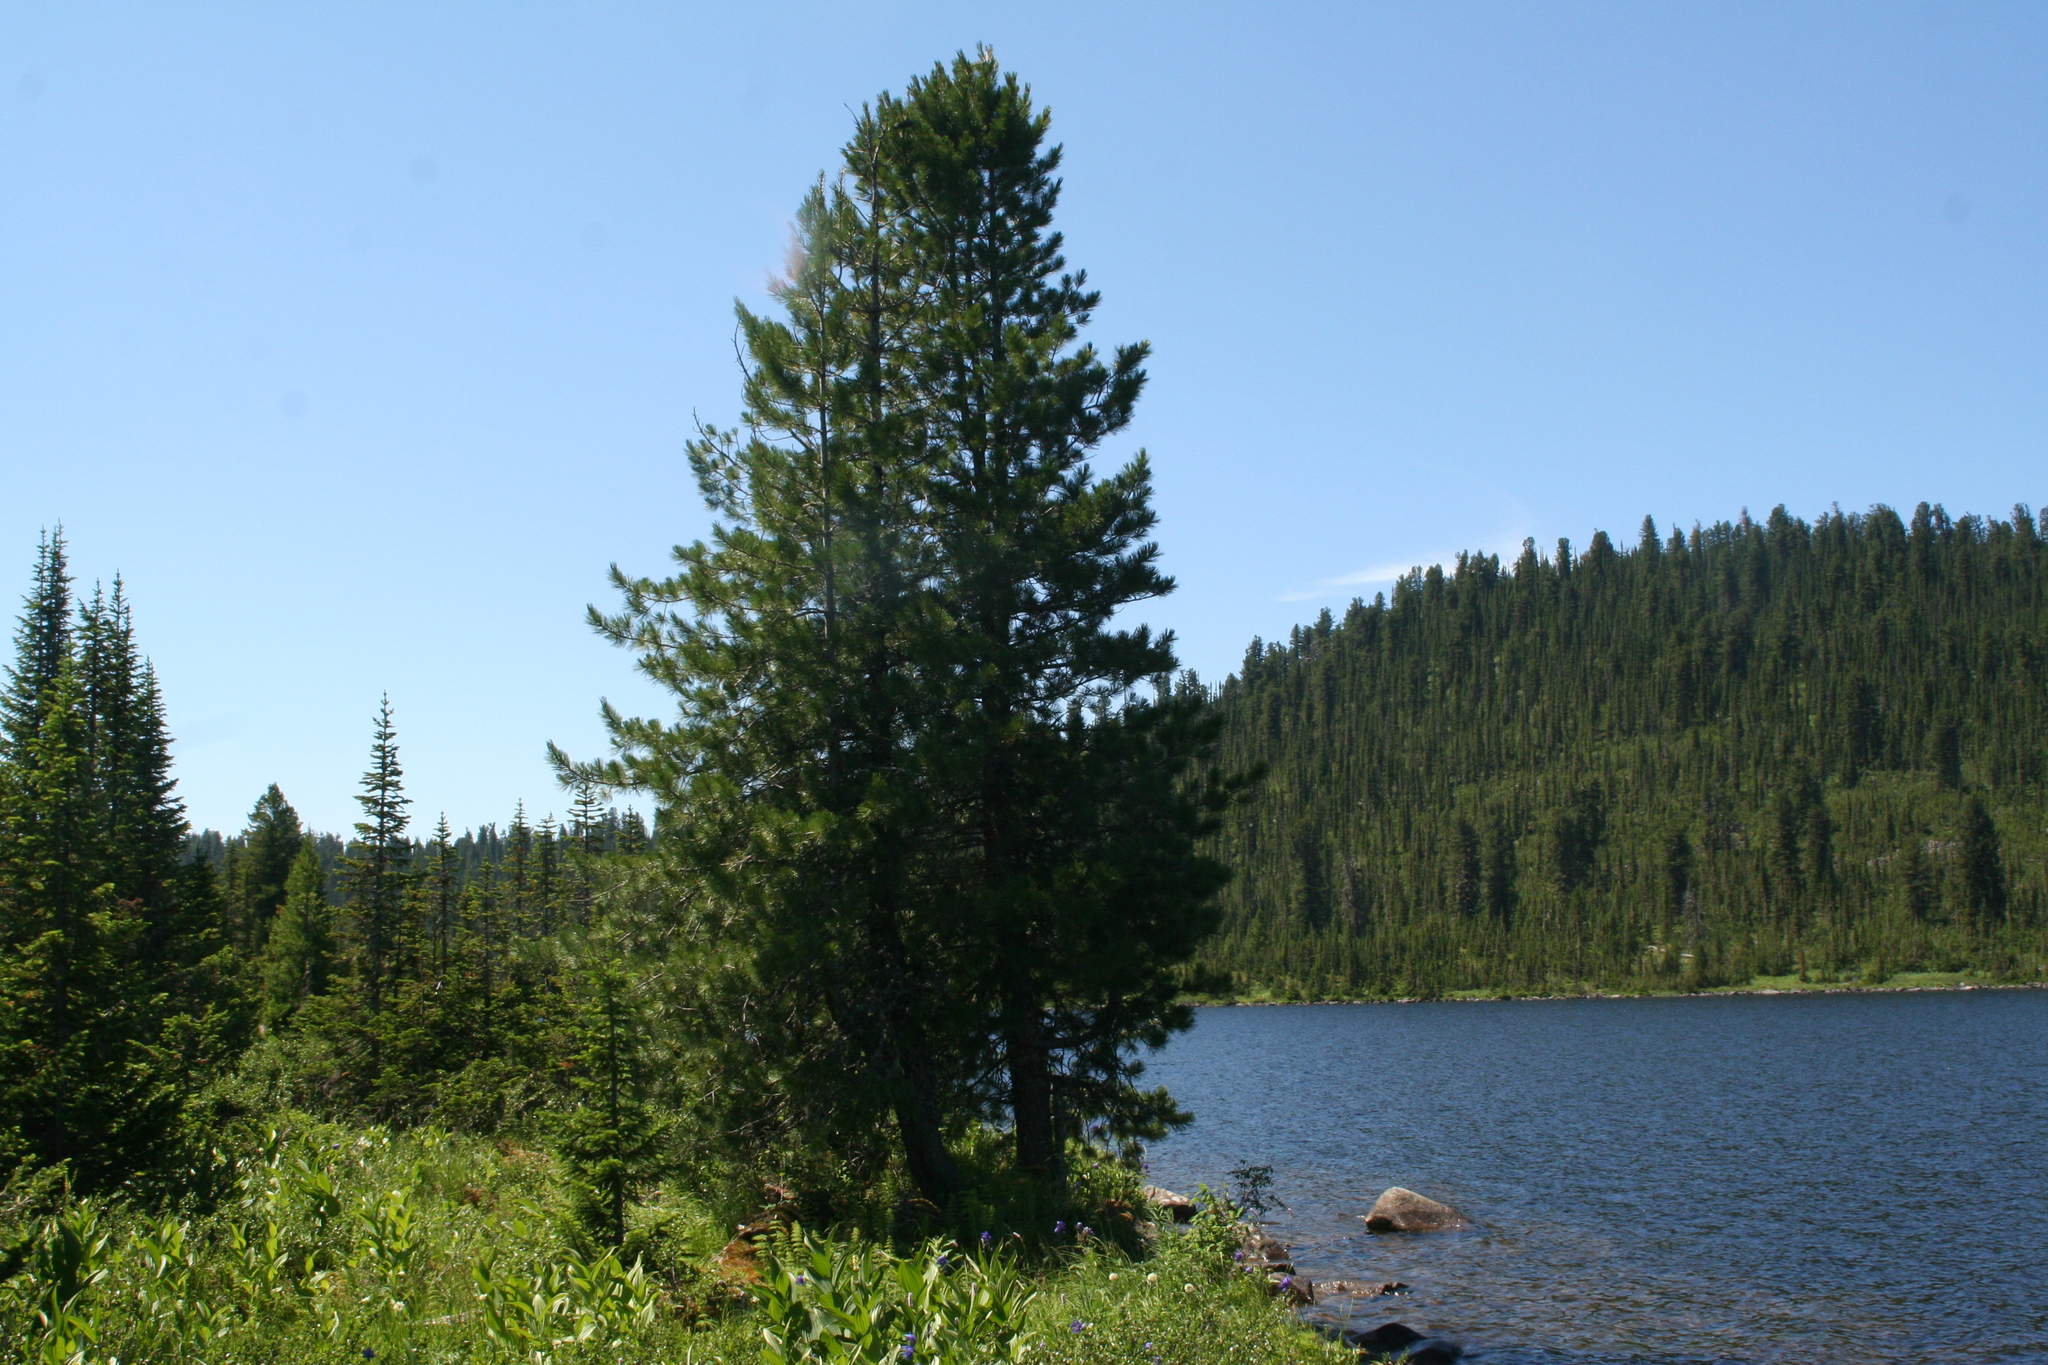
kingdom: Plantae
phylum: Tracheophyta
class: Pinopsida
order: Pinales
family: Pinaceae
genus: Pinus
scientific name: Pinus sibirica
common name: Siberian pine
